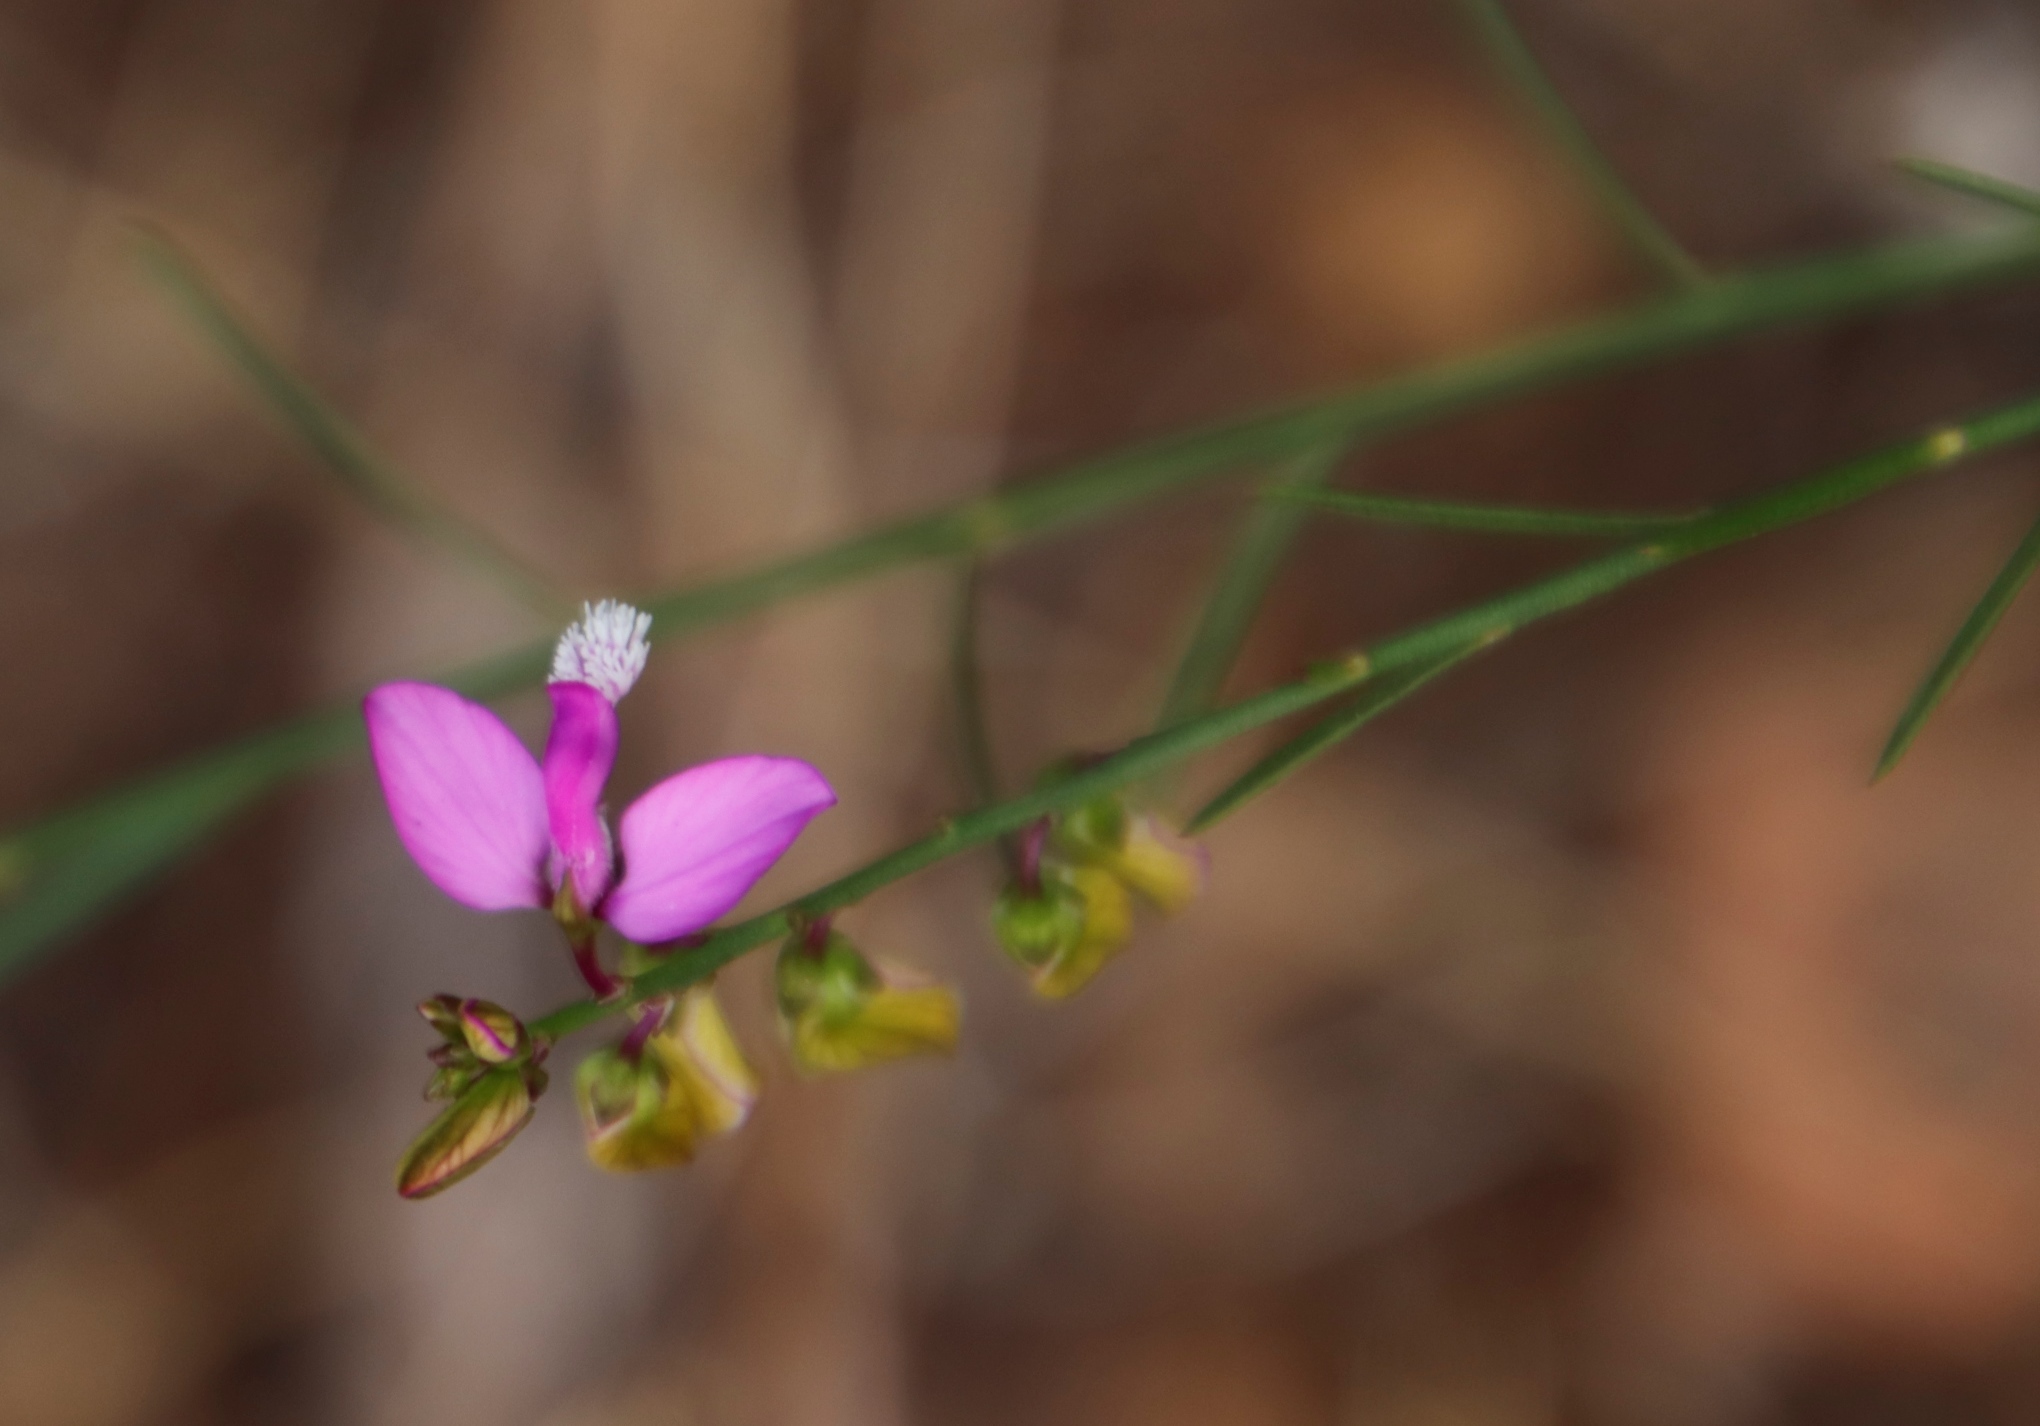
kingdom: Plantae
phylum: Tracheophyta
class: Magnoliopsida
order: Fabales
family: Polygalaceae
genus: Polygala
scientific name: Polygala garcini
